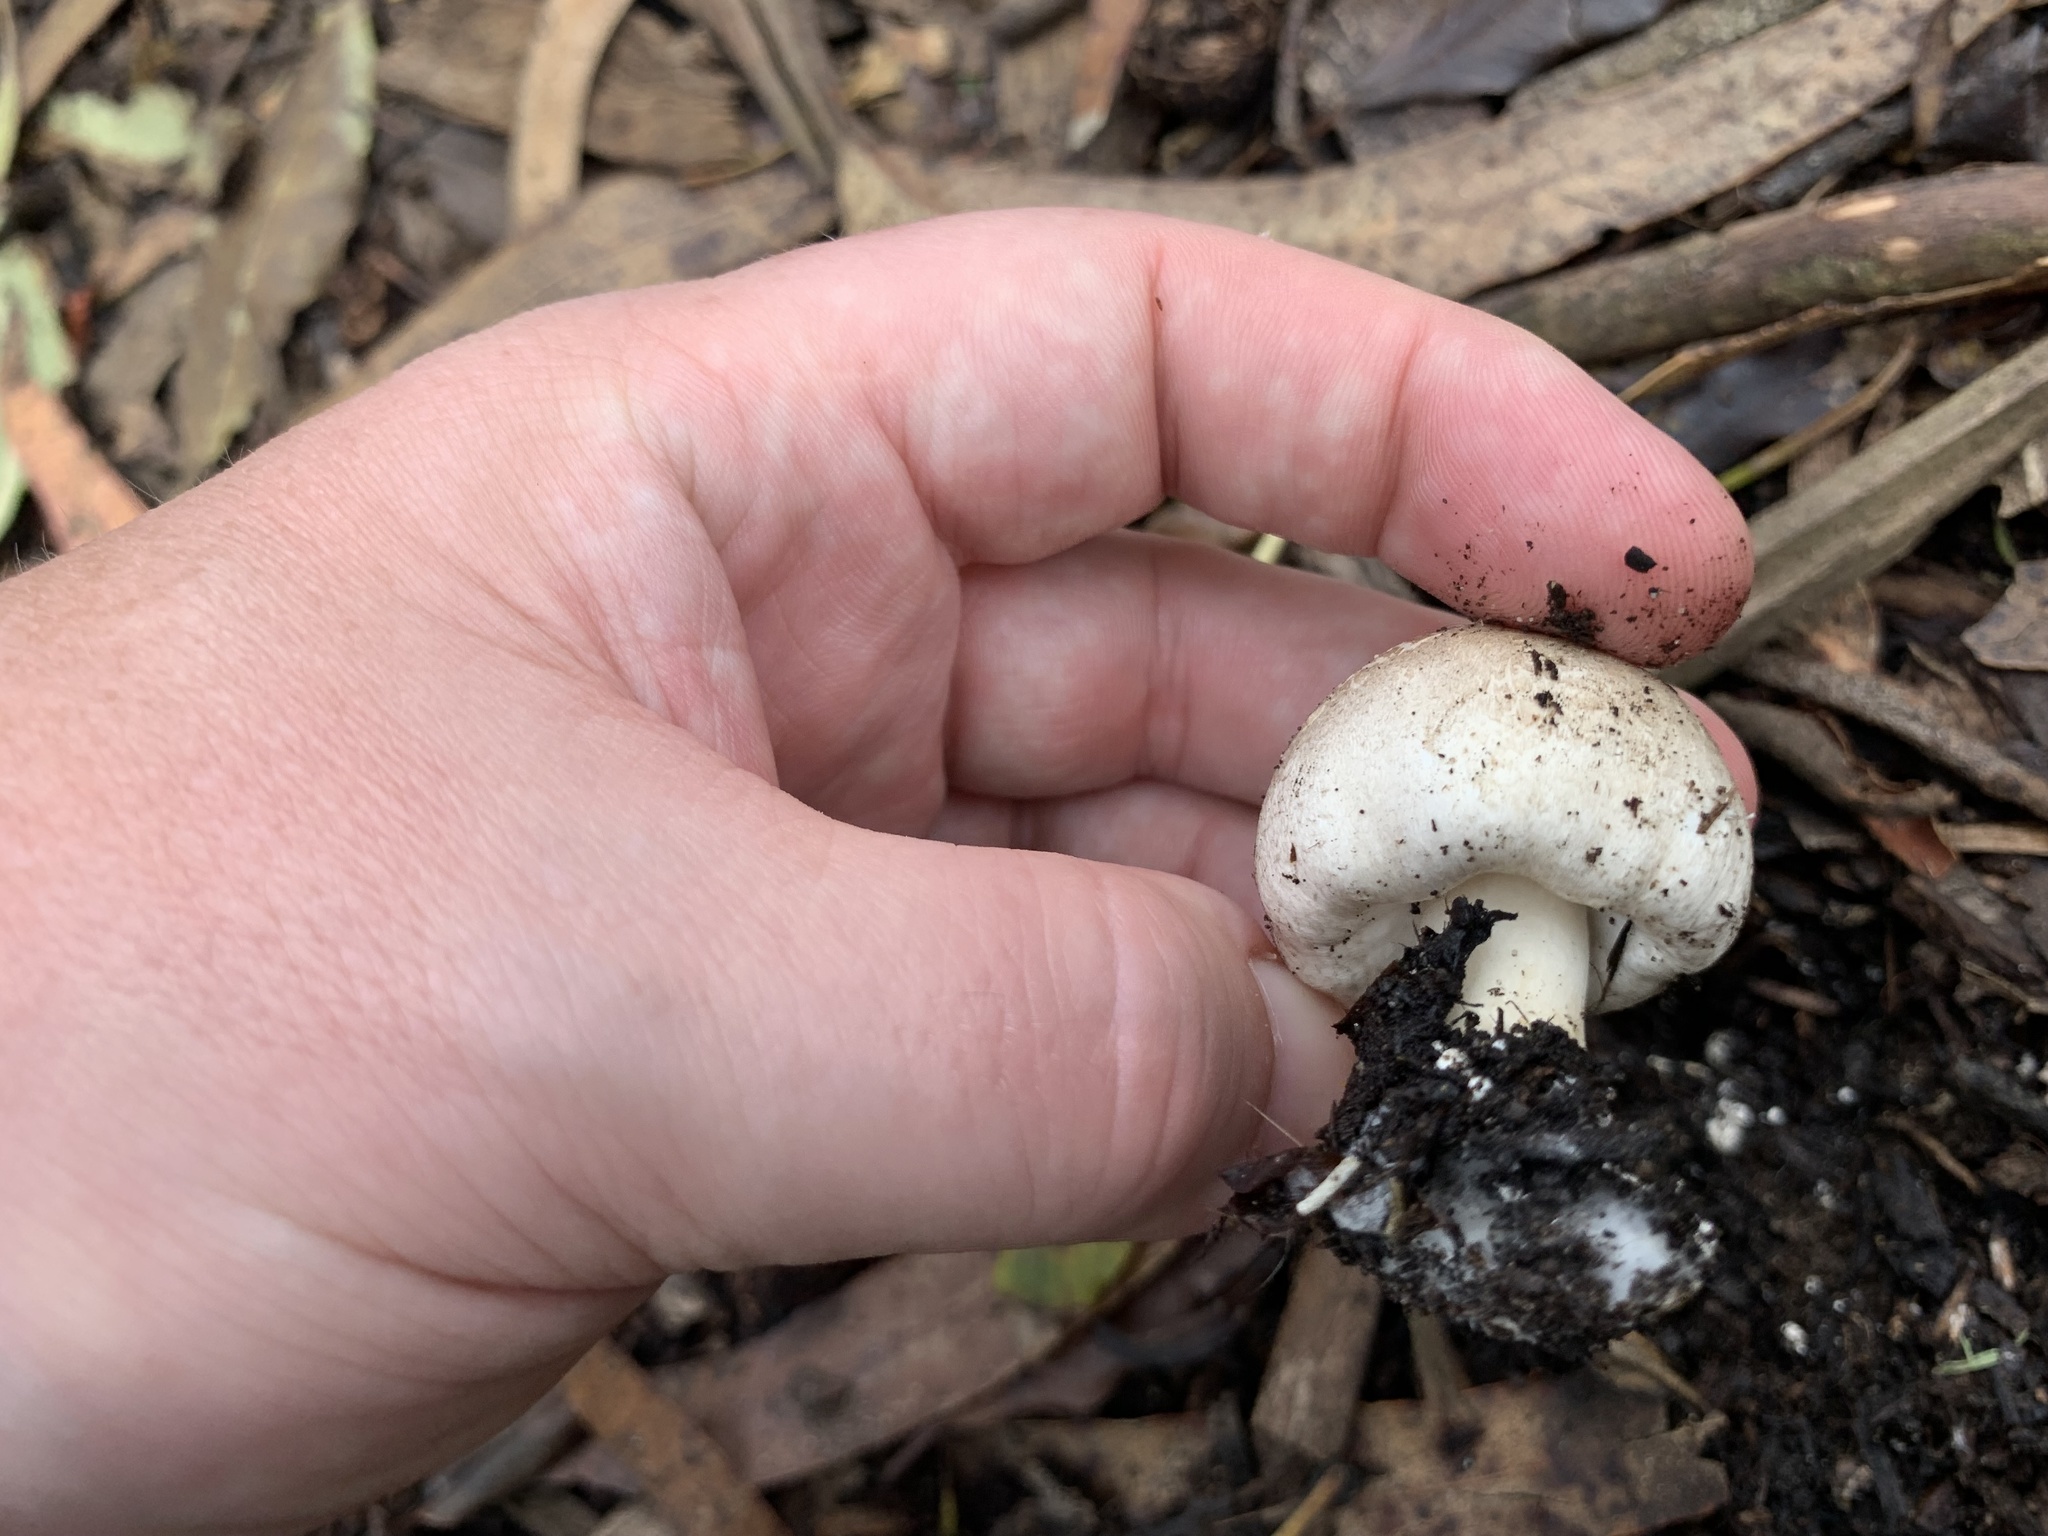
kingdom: Fungi
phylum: Basidiomycota
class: Agaricomycetes
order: Agaricales
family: Agaricaceae
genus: Agaricus
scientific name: Agaricus californicus
